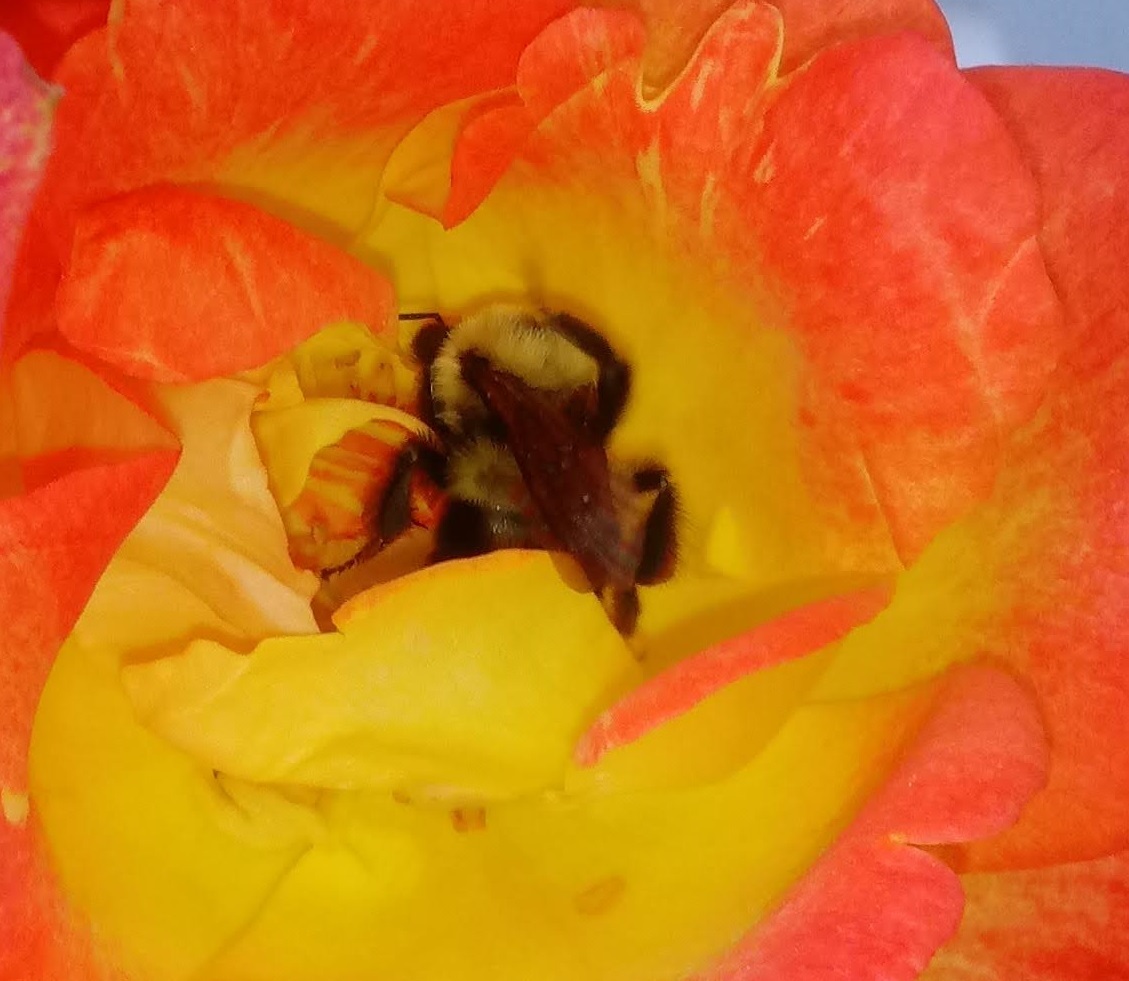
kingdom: Animalia
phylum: Arthropoda
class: Insecta
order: Hymenoptera
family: Apidae
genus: Bombus
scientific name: Bombus bimaculatus
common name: Two-spotted bumble bee
